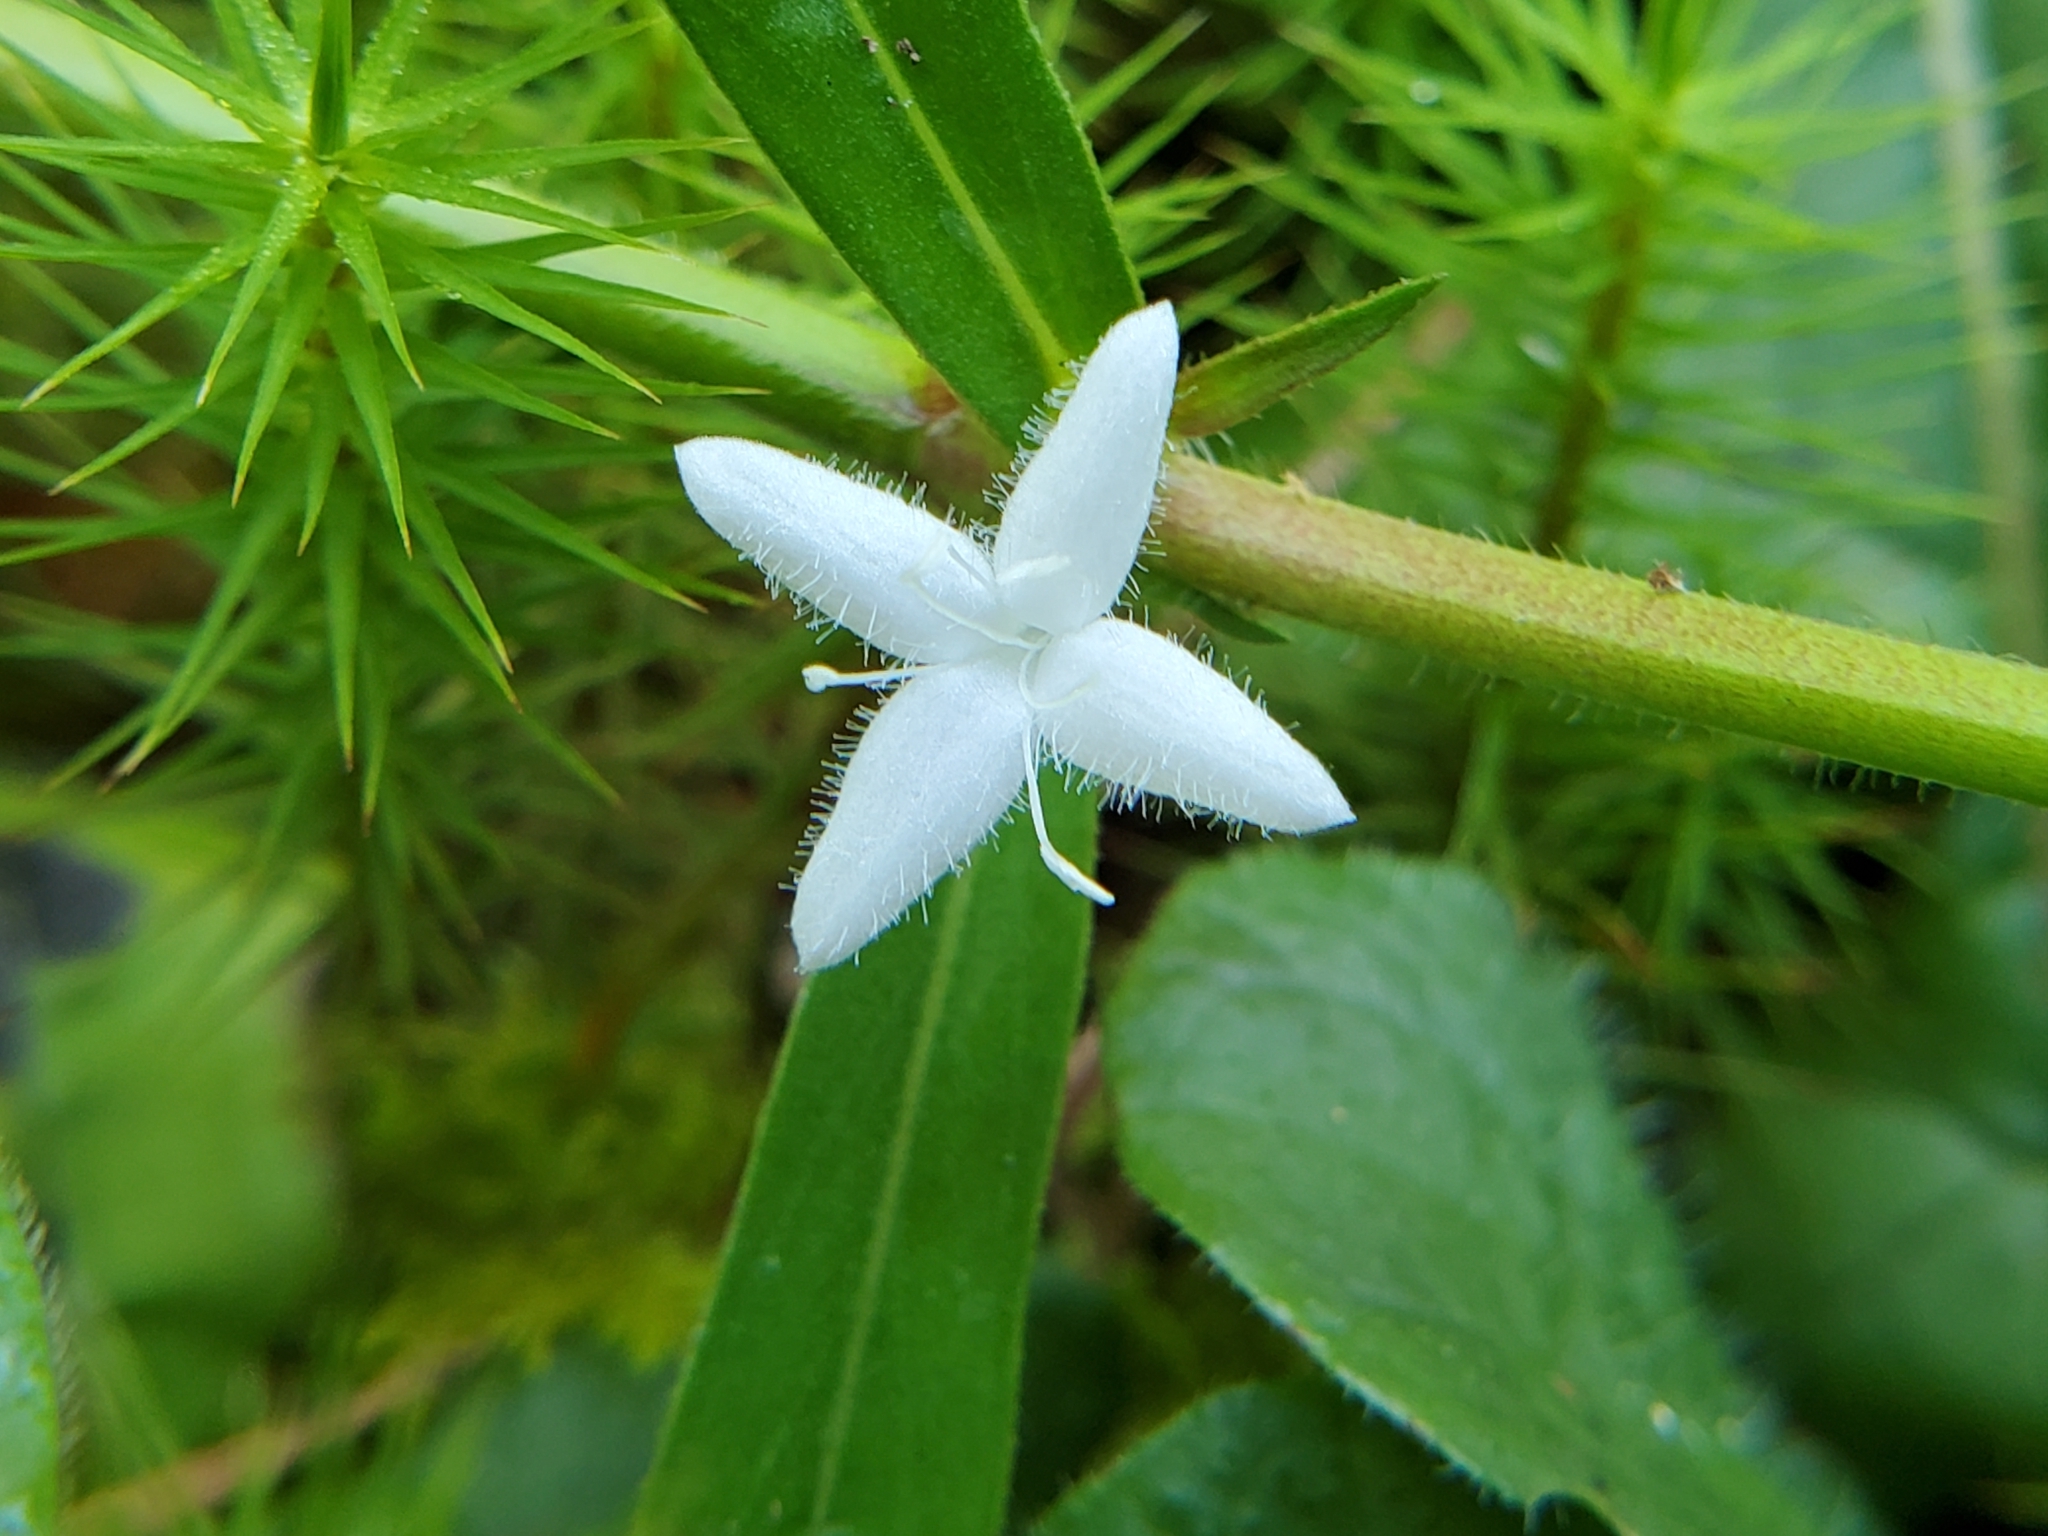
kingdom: Plantae
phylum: Tracheophyta
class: Magnoliopsida
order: Gentianales
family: Rubiaceae
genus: Diodia
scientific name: Diodia virginiana
